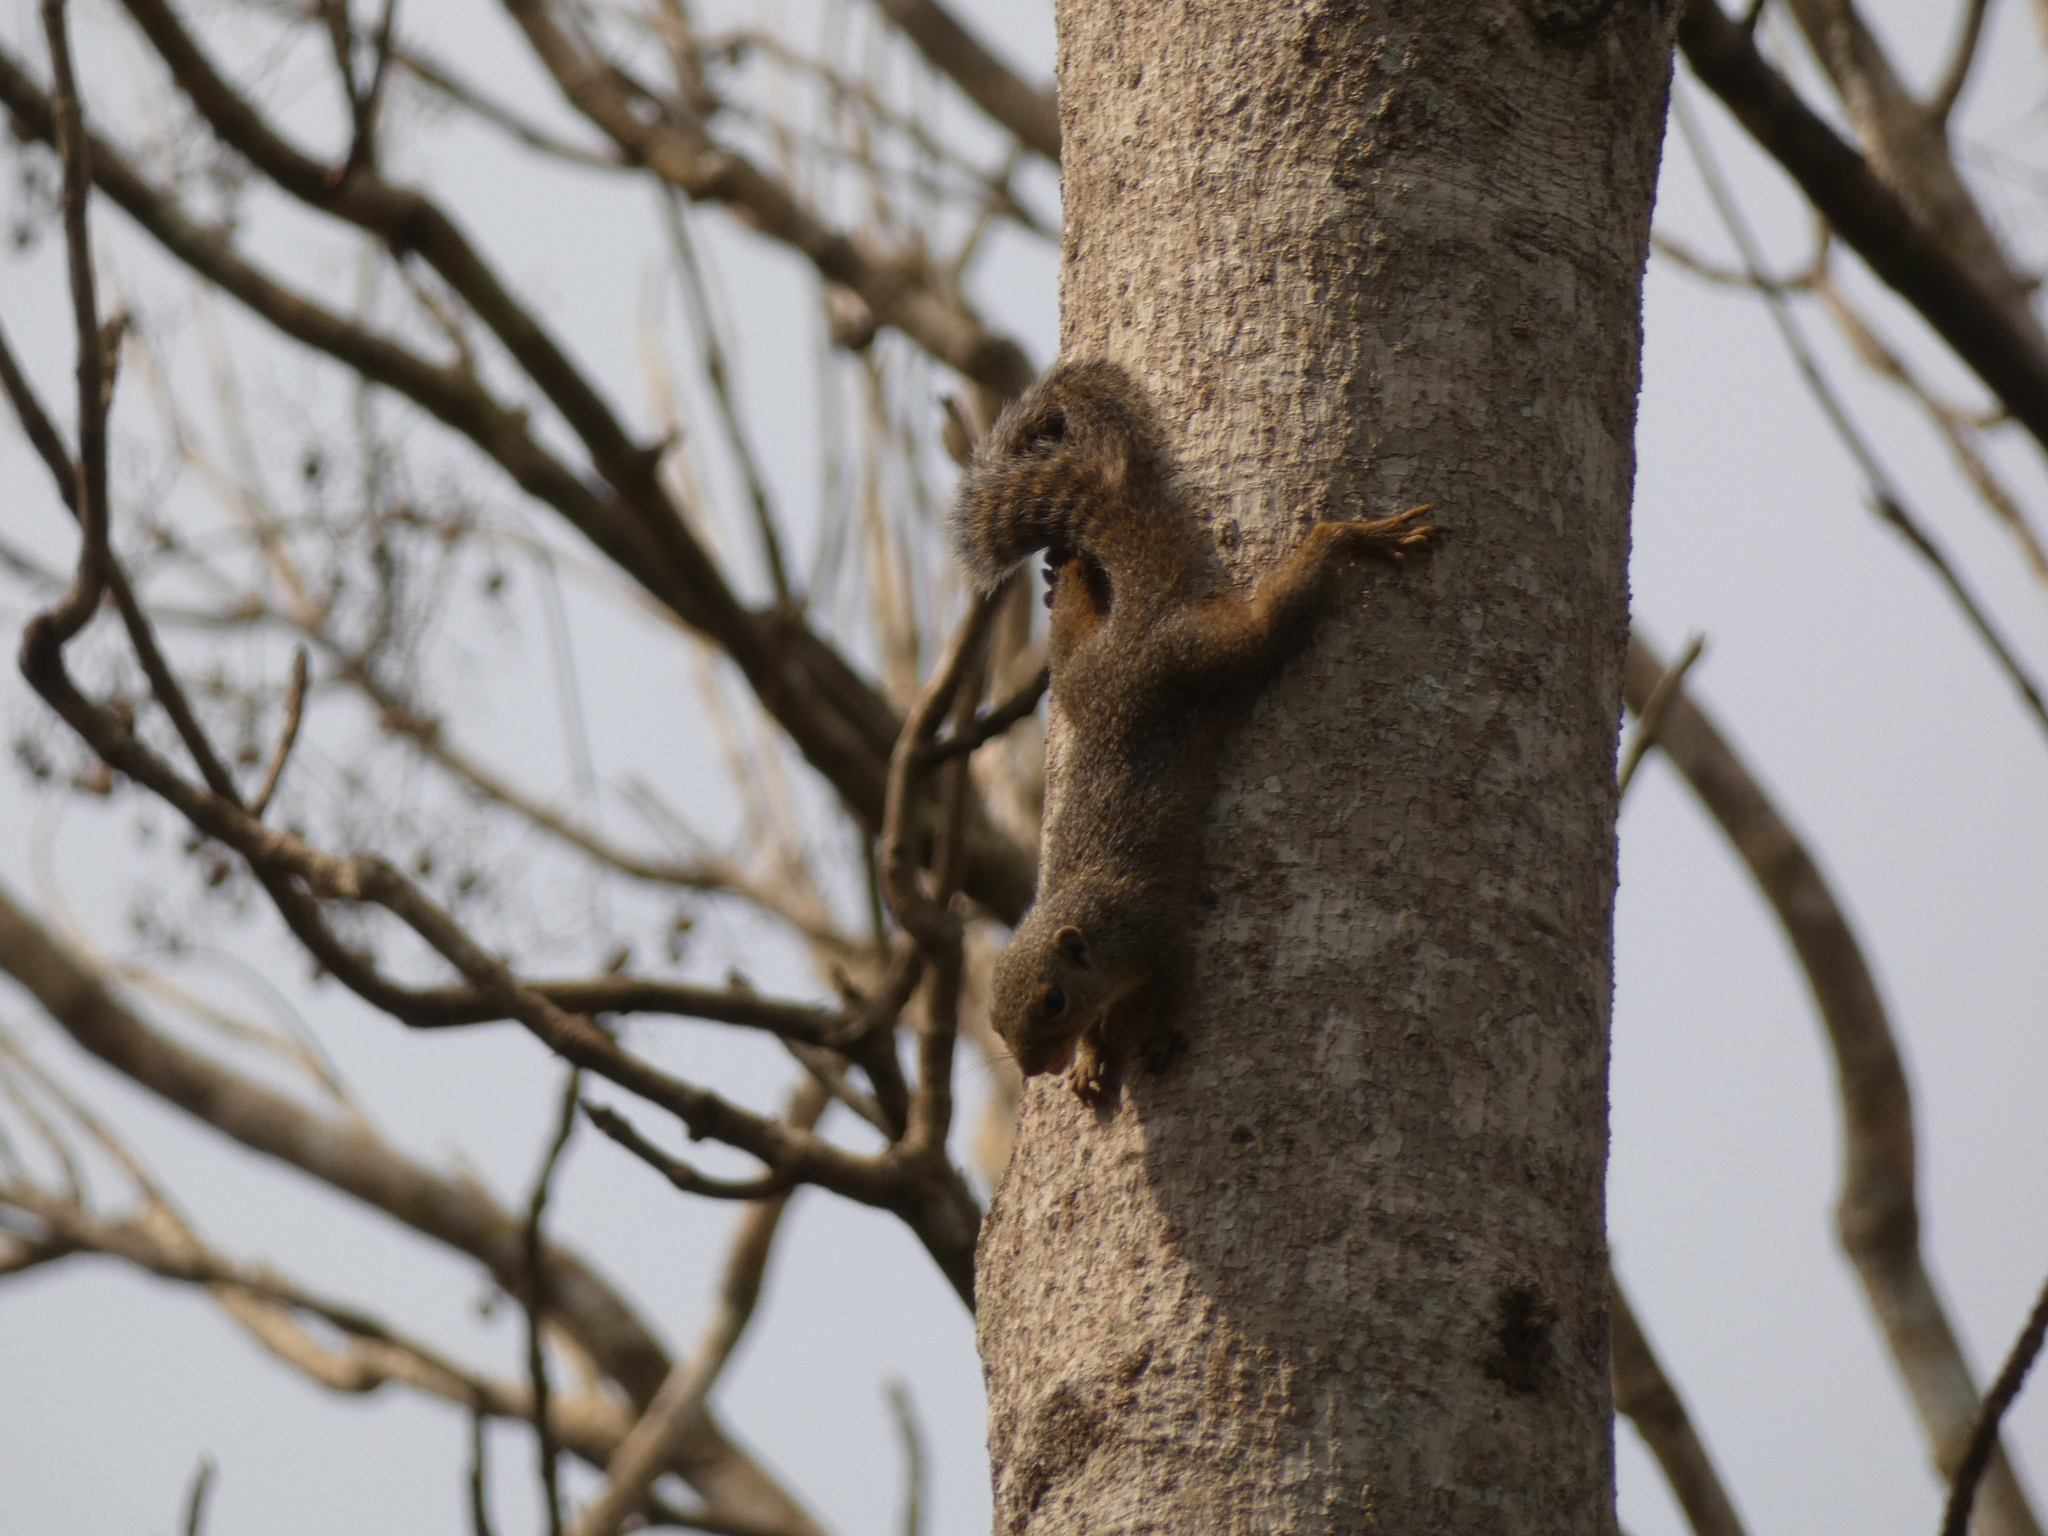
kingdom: Animalia
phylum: Chordata
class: Mammalia
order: Rodentia
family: Sciuridae
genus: Heliosciurus
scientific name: Heliosciurus rufobrachium
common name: Red-legged sun squirrel
